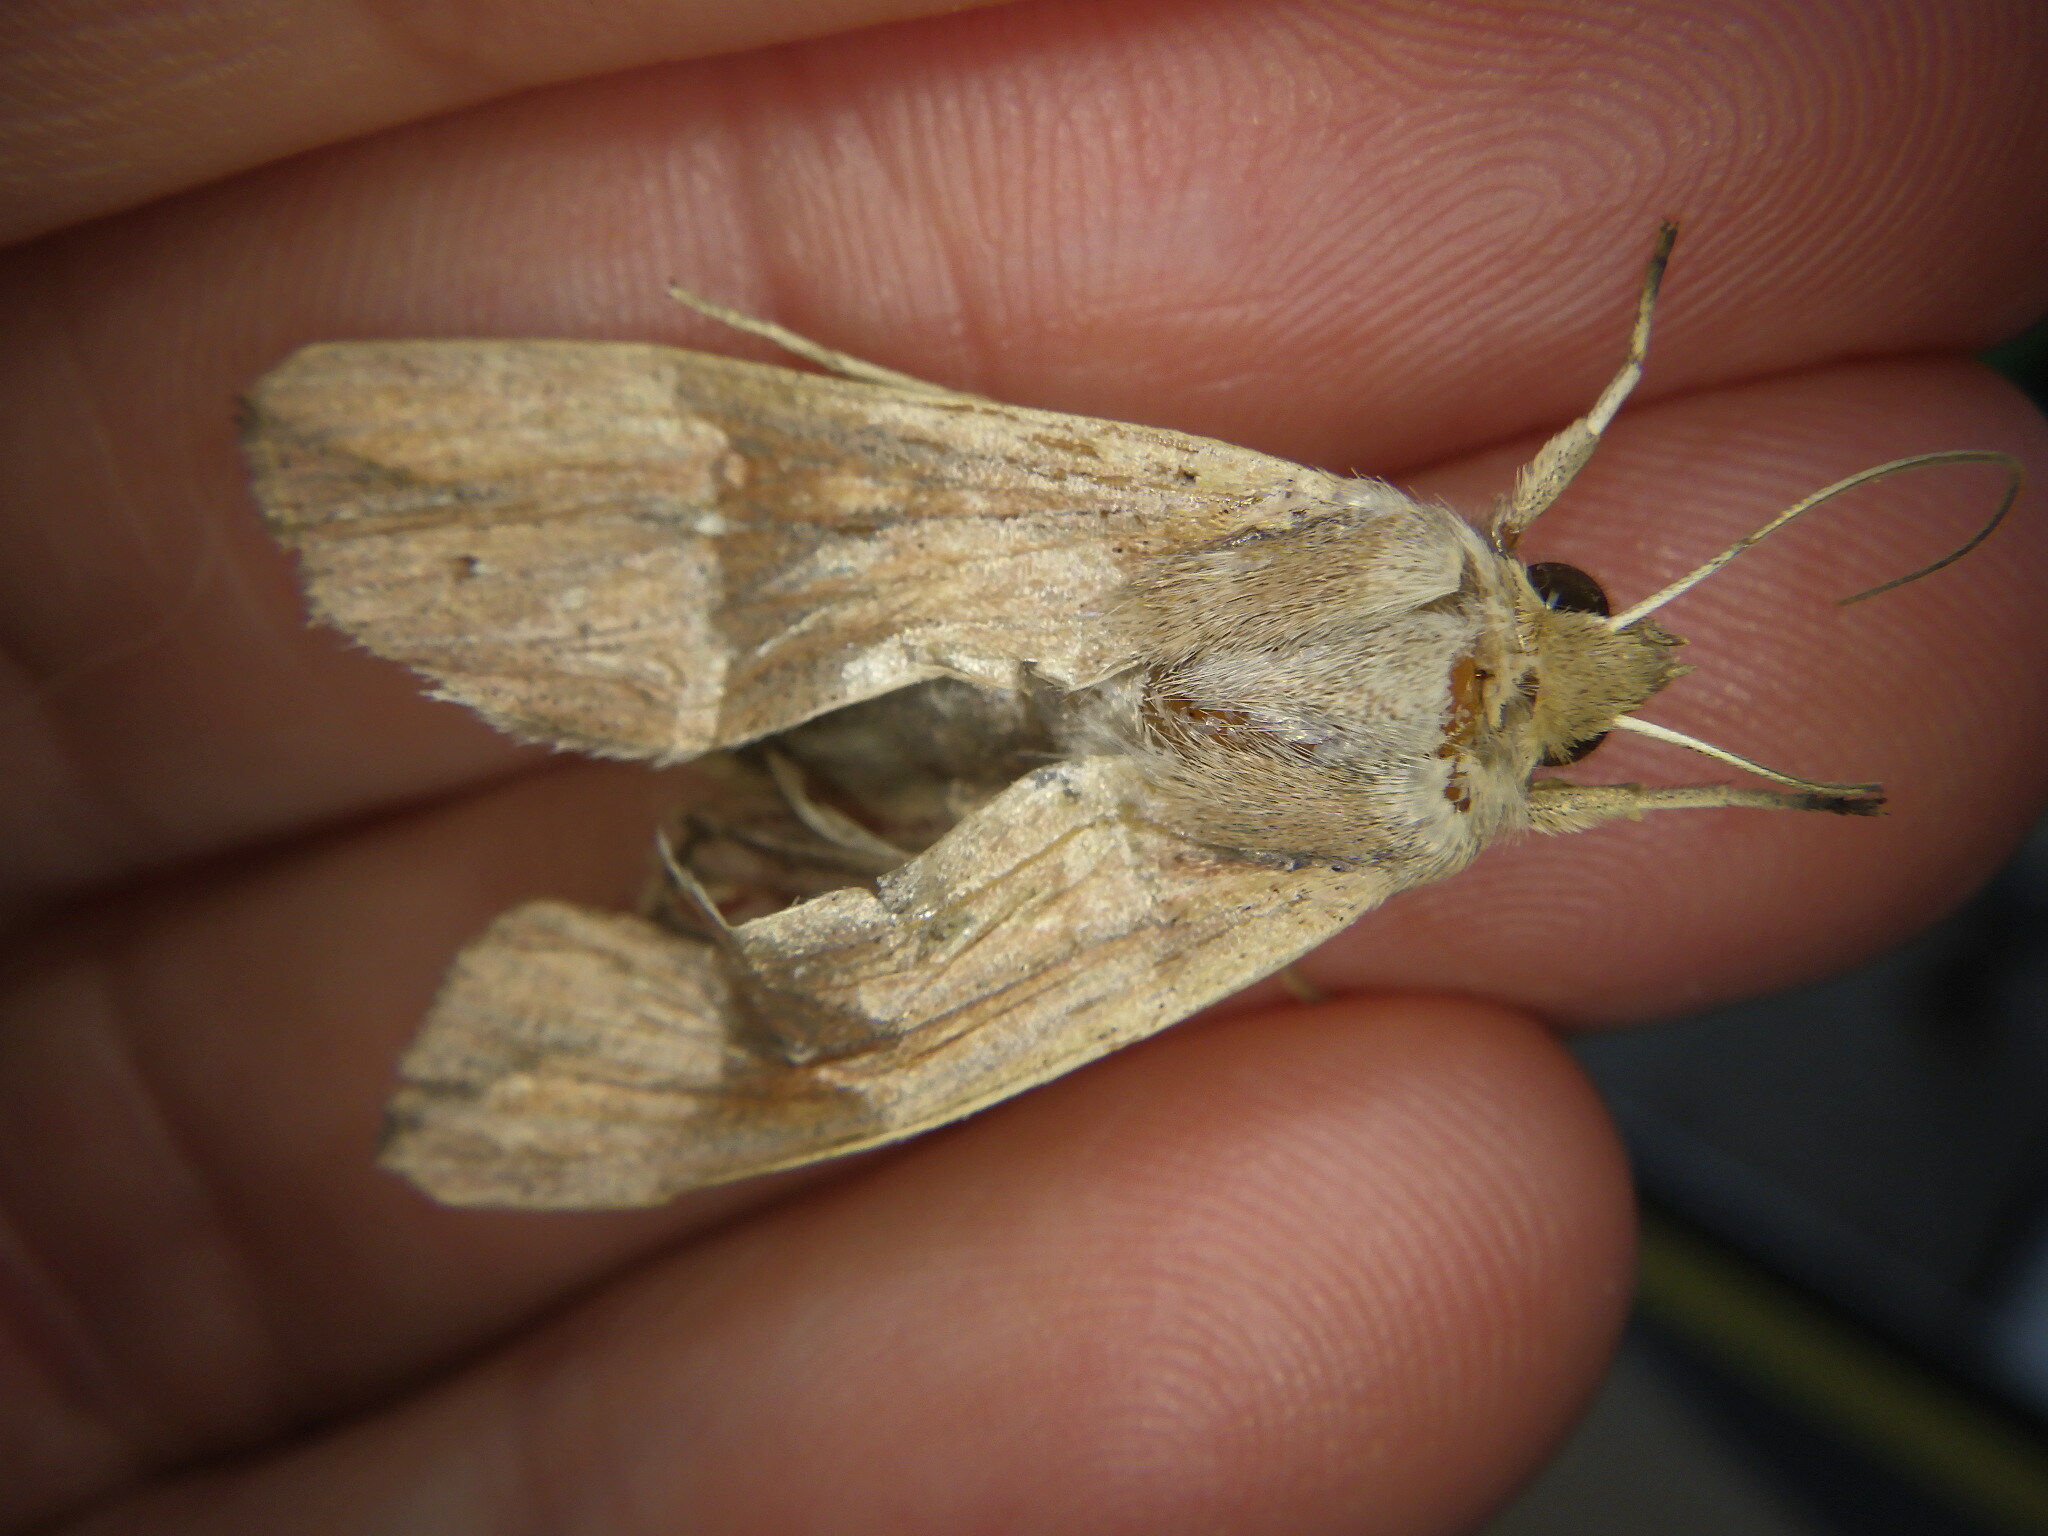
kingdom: Animalia
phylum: Arthropoda
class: Insecta
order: Lepidoptera
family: Noctuidae
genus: Mythimna
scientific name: Mythimna unipuncta
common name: White-speck
